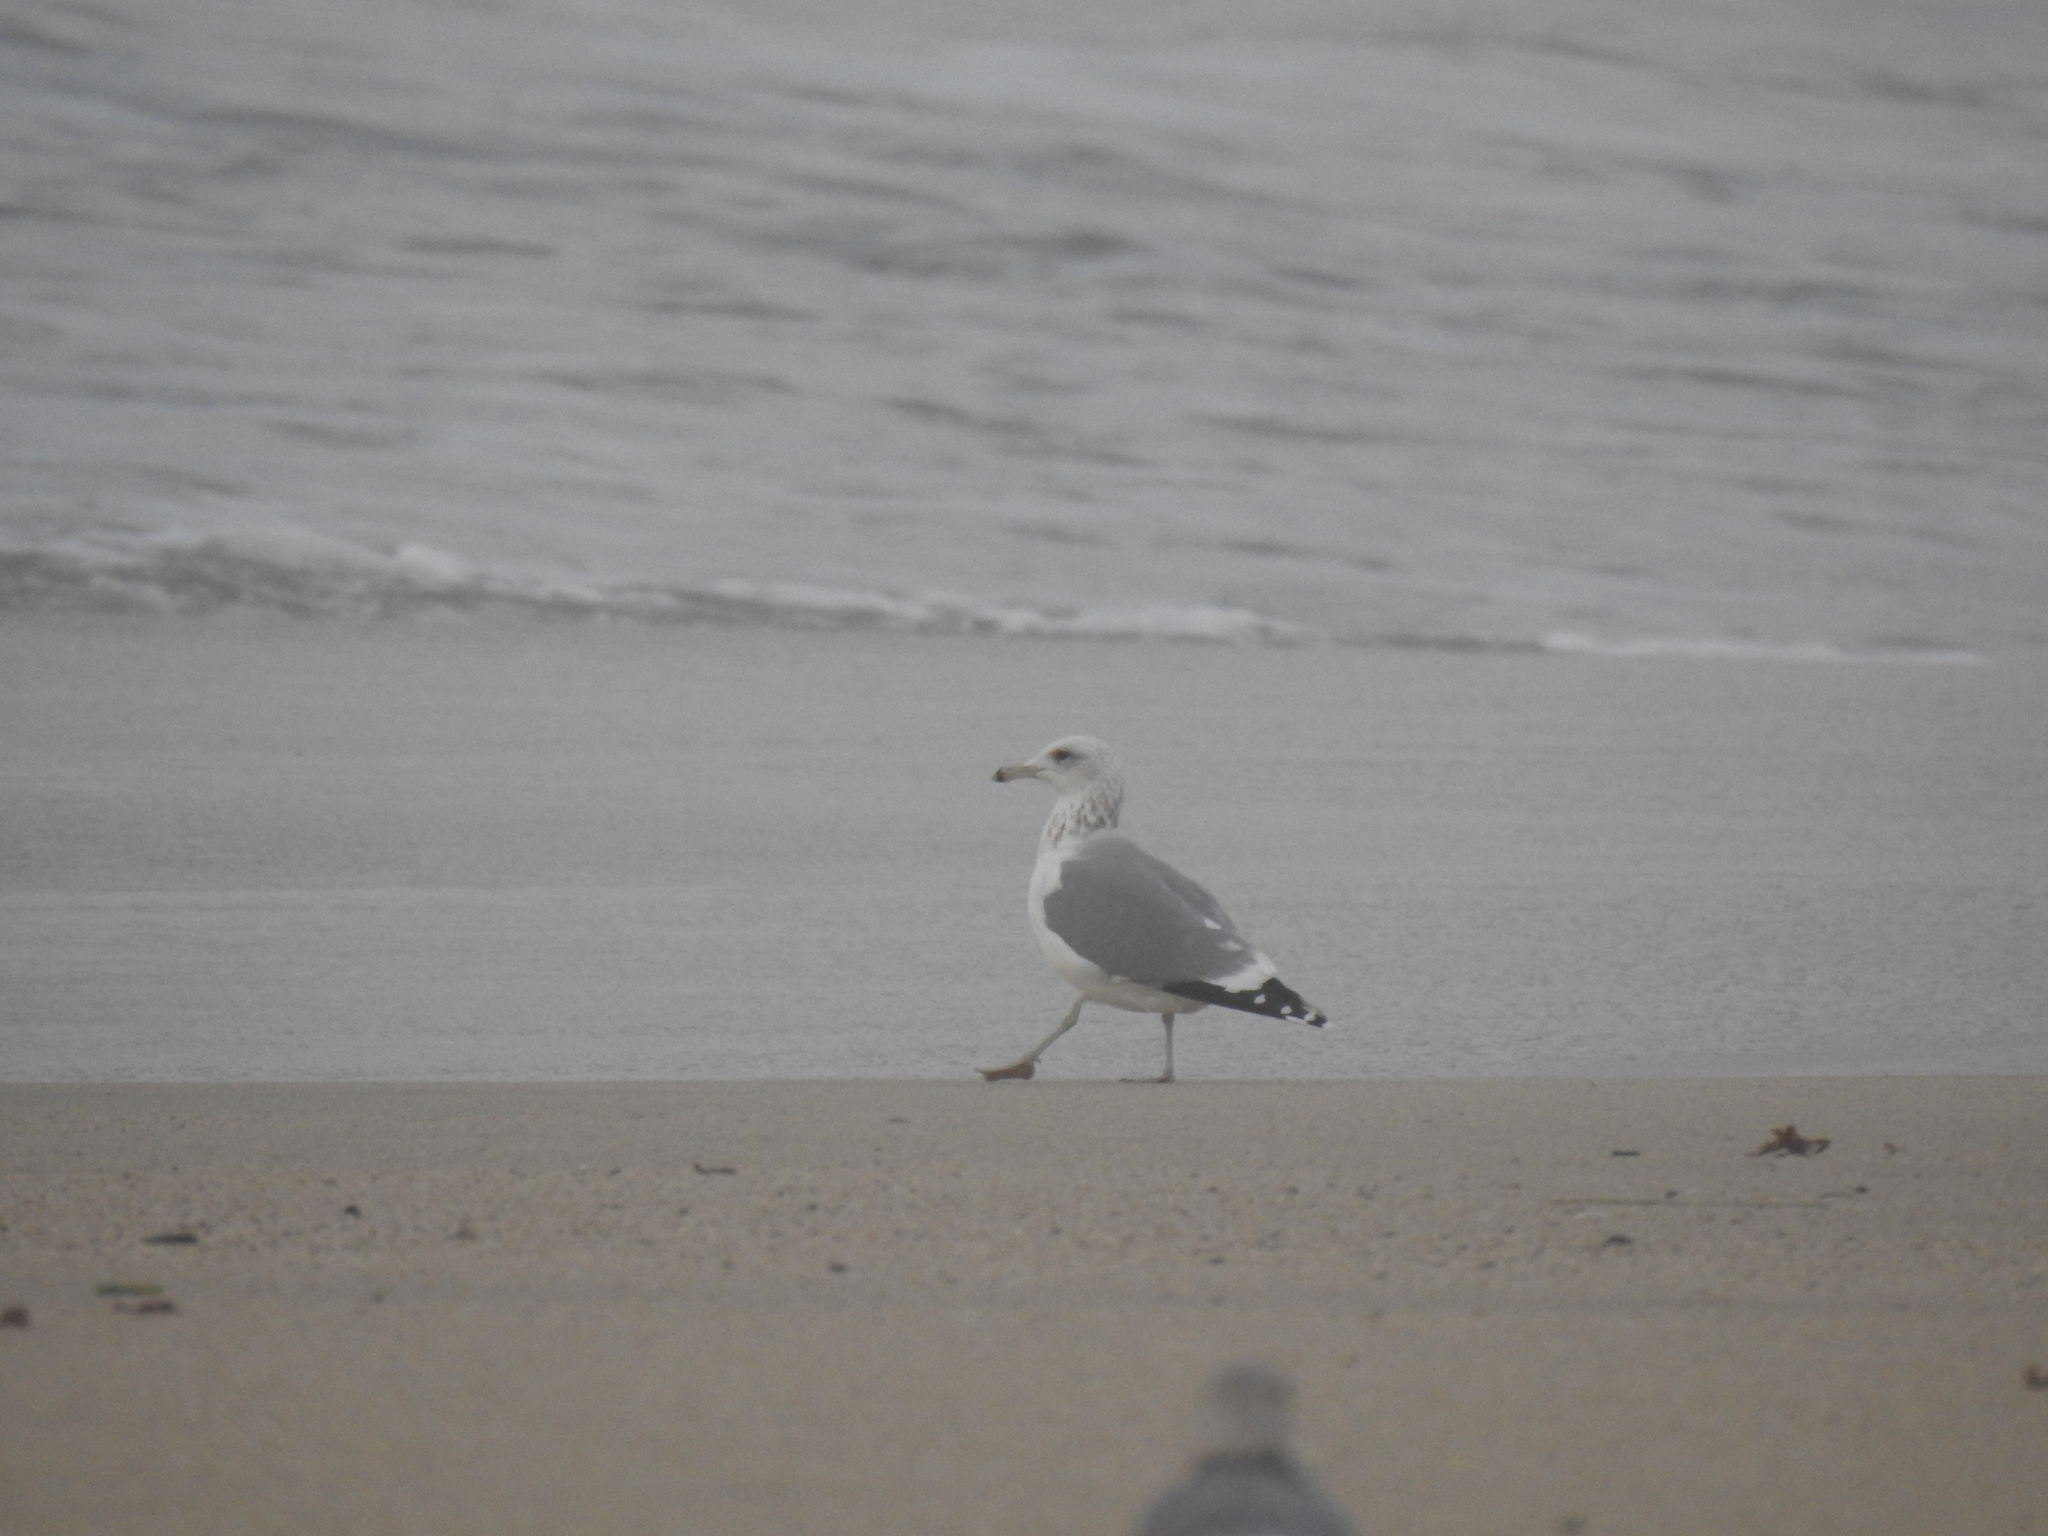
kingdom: Animalia
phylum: Chordata
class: Aves
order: Charadriiformes
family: Laridae
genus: Larus
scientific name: Larus californicus
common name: California gull
